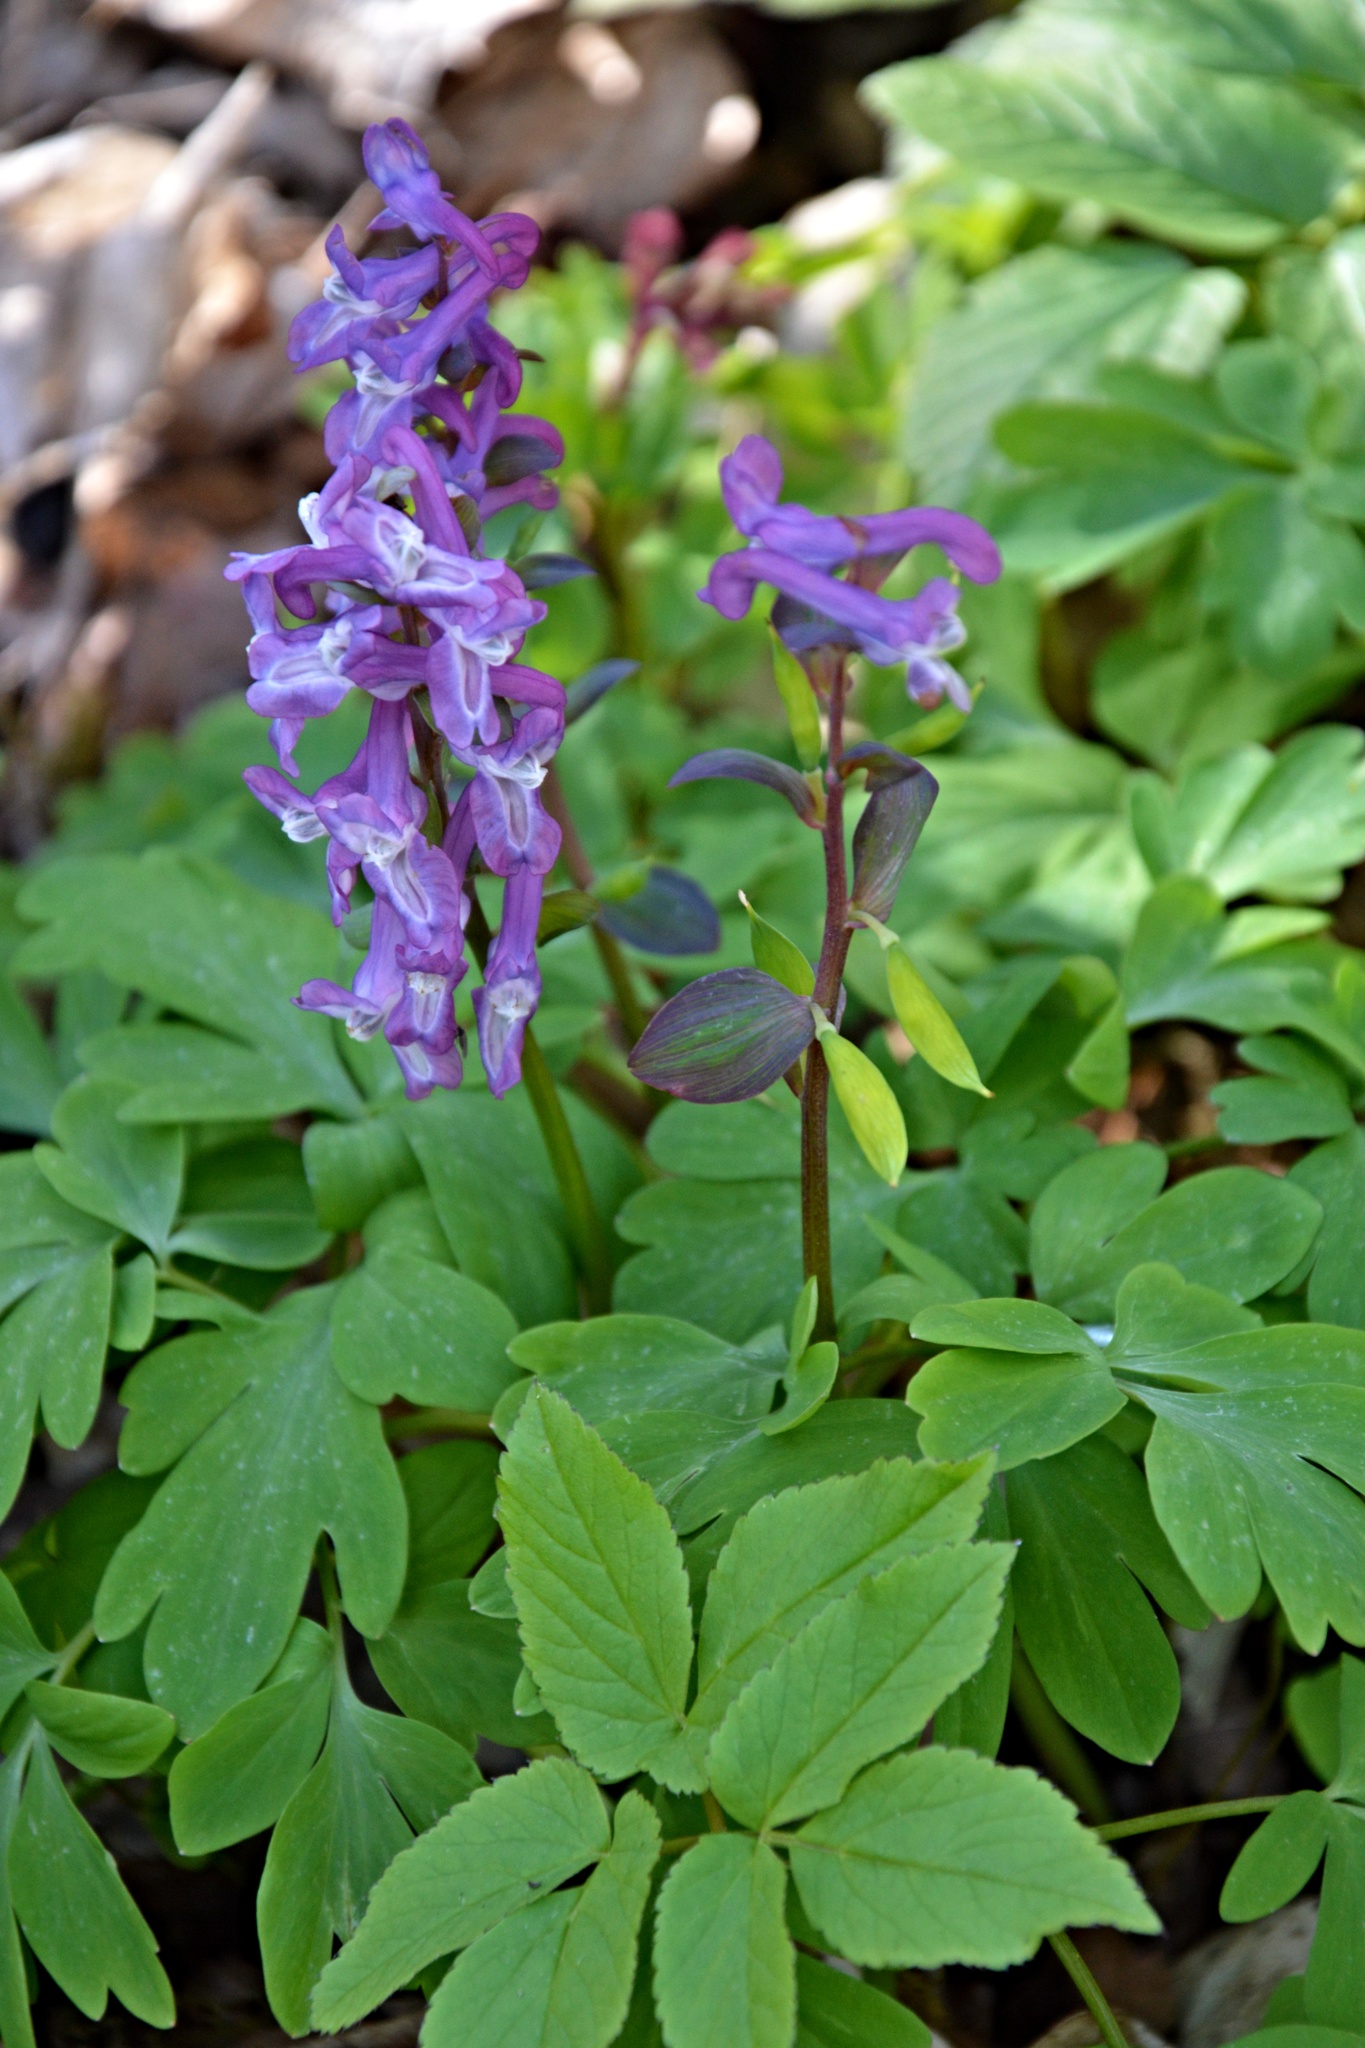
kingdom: Plantae
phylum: Tracheophyta
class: Magnoliopsida
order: Ranunculales
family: Papaveraceae
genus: Corydalis
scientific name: Corydalis cava
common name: Hollowroot
